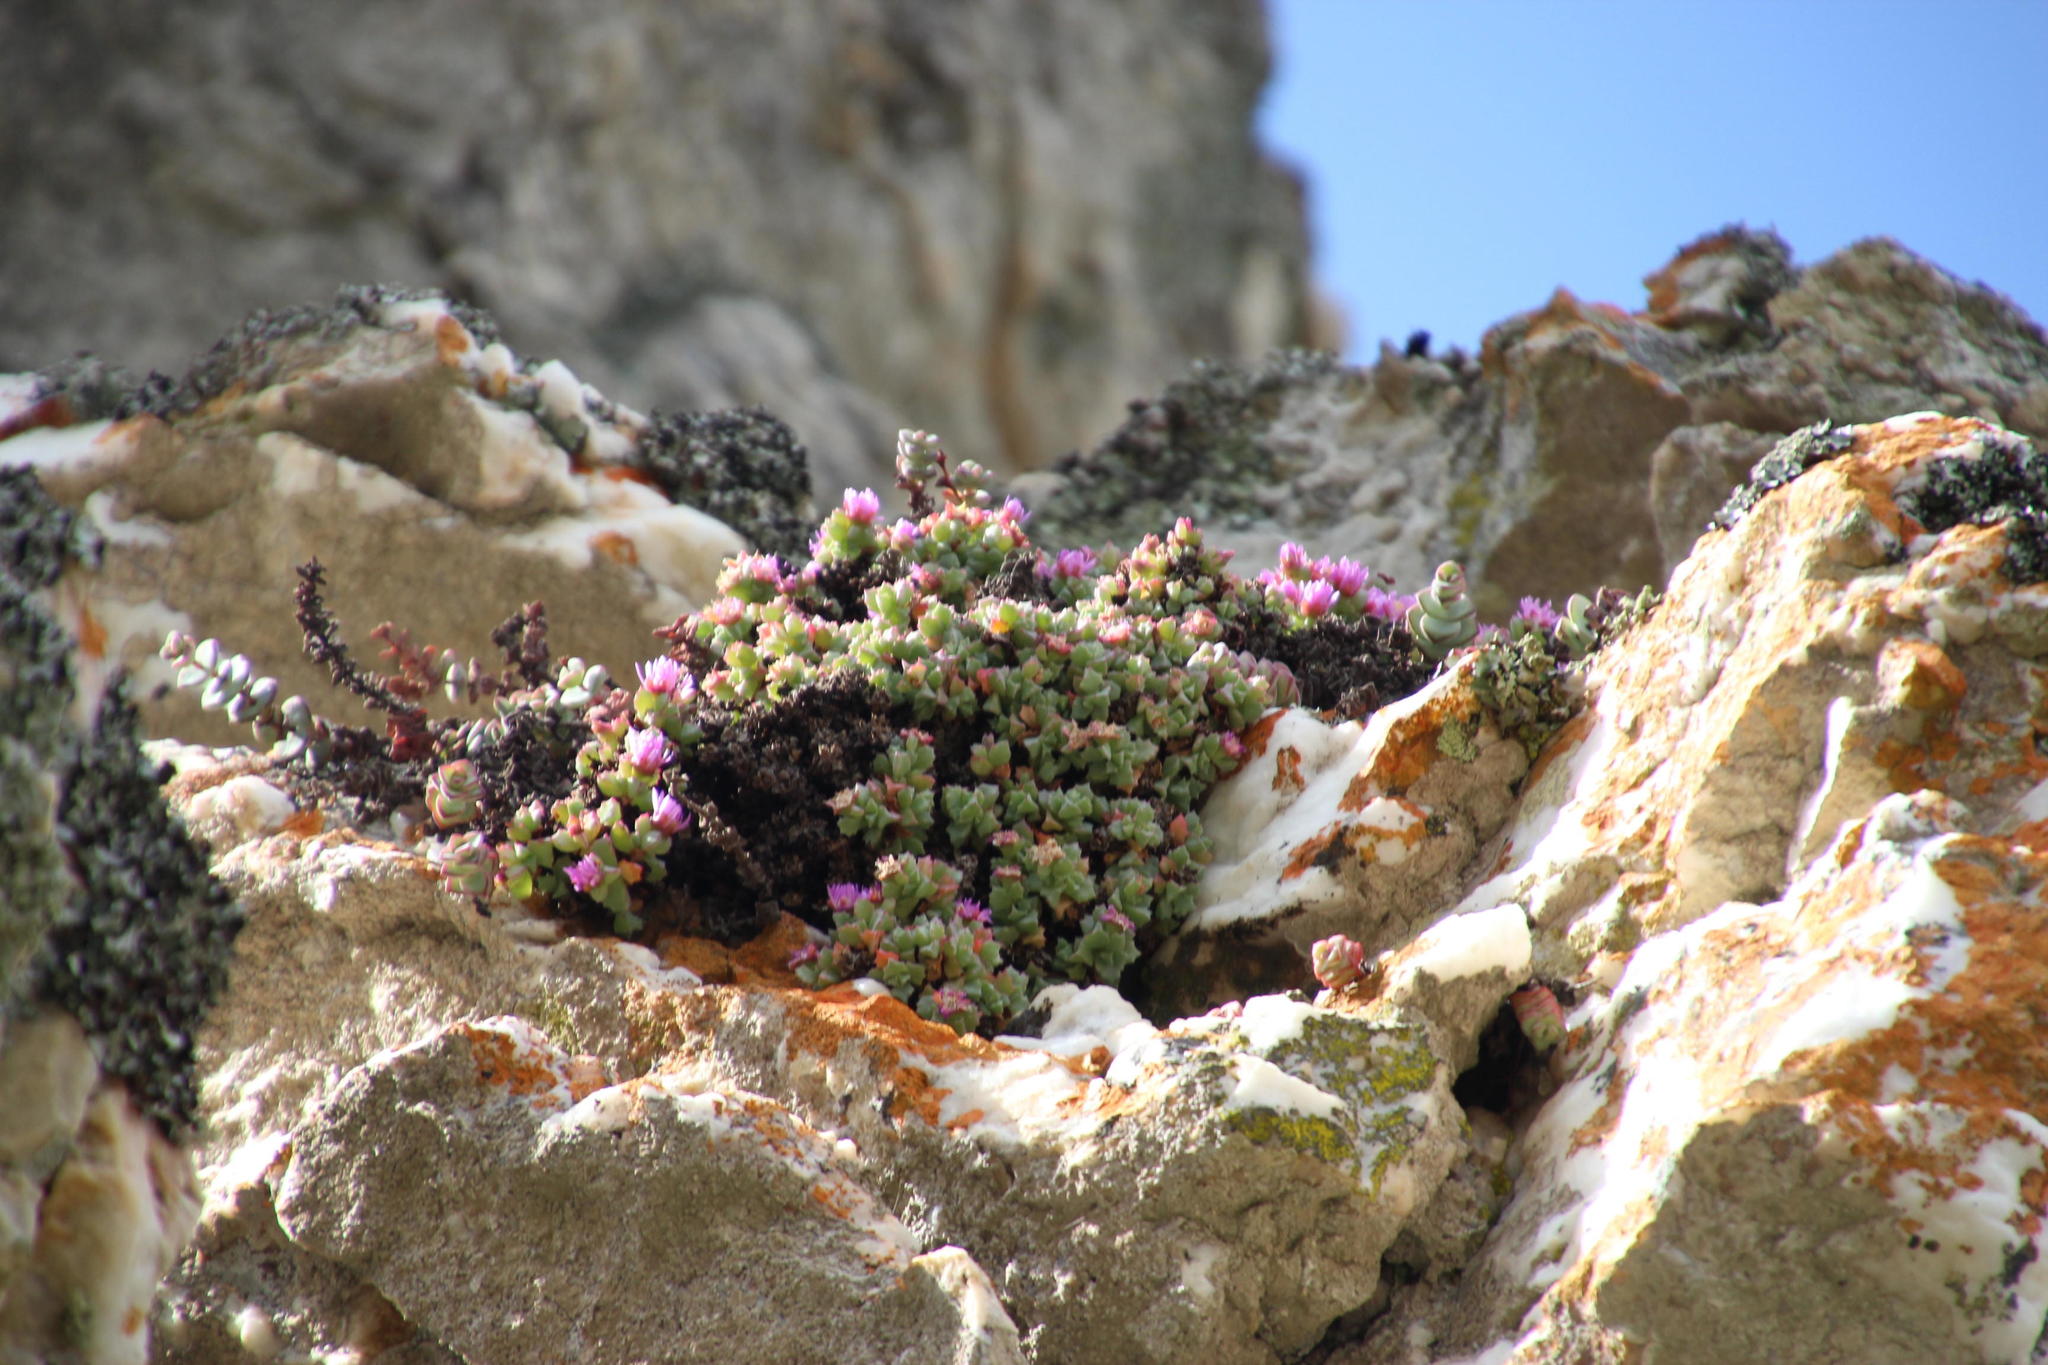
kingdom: Plantae
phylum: Tracheophyta
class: Magnoliopsida
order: Caryophyllales
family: Aizoaceae
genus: Oscularia
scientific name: Oscularia deltoides
